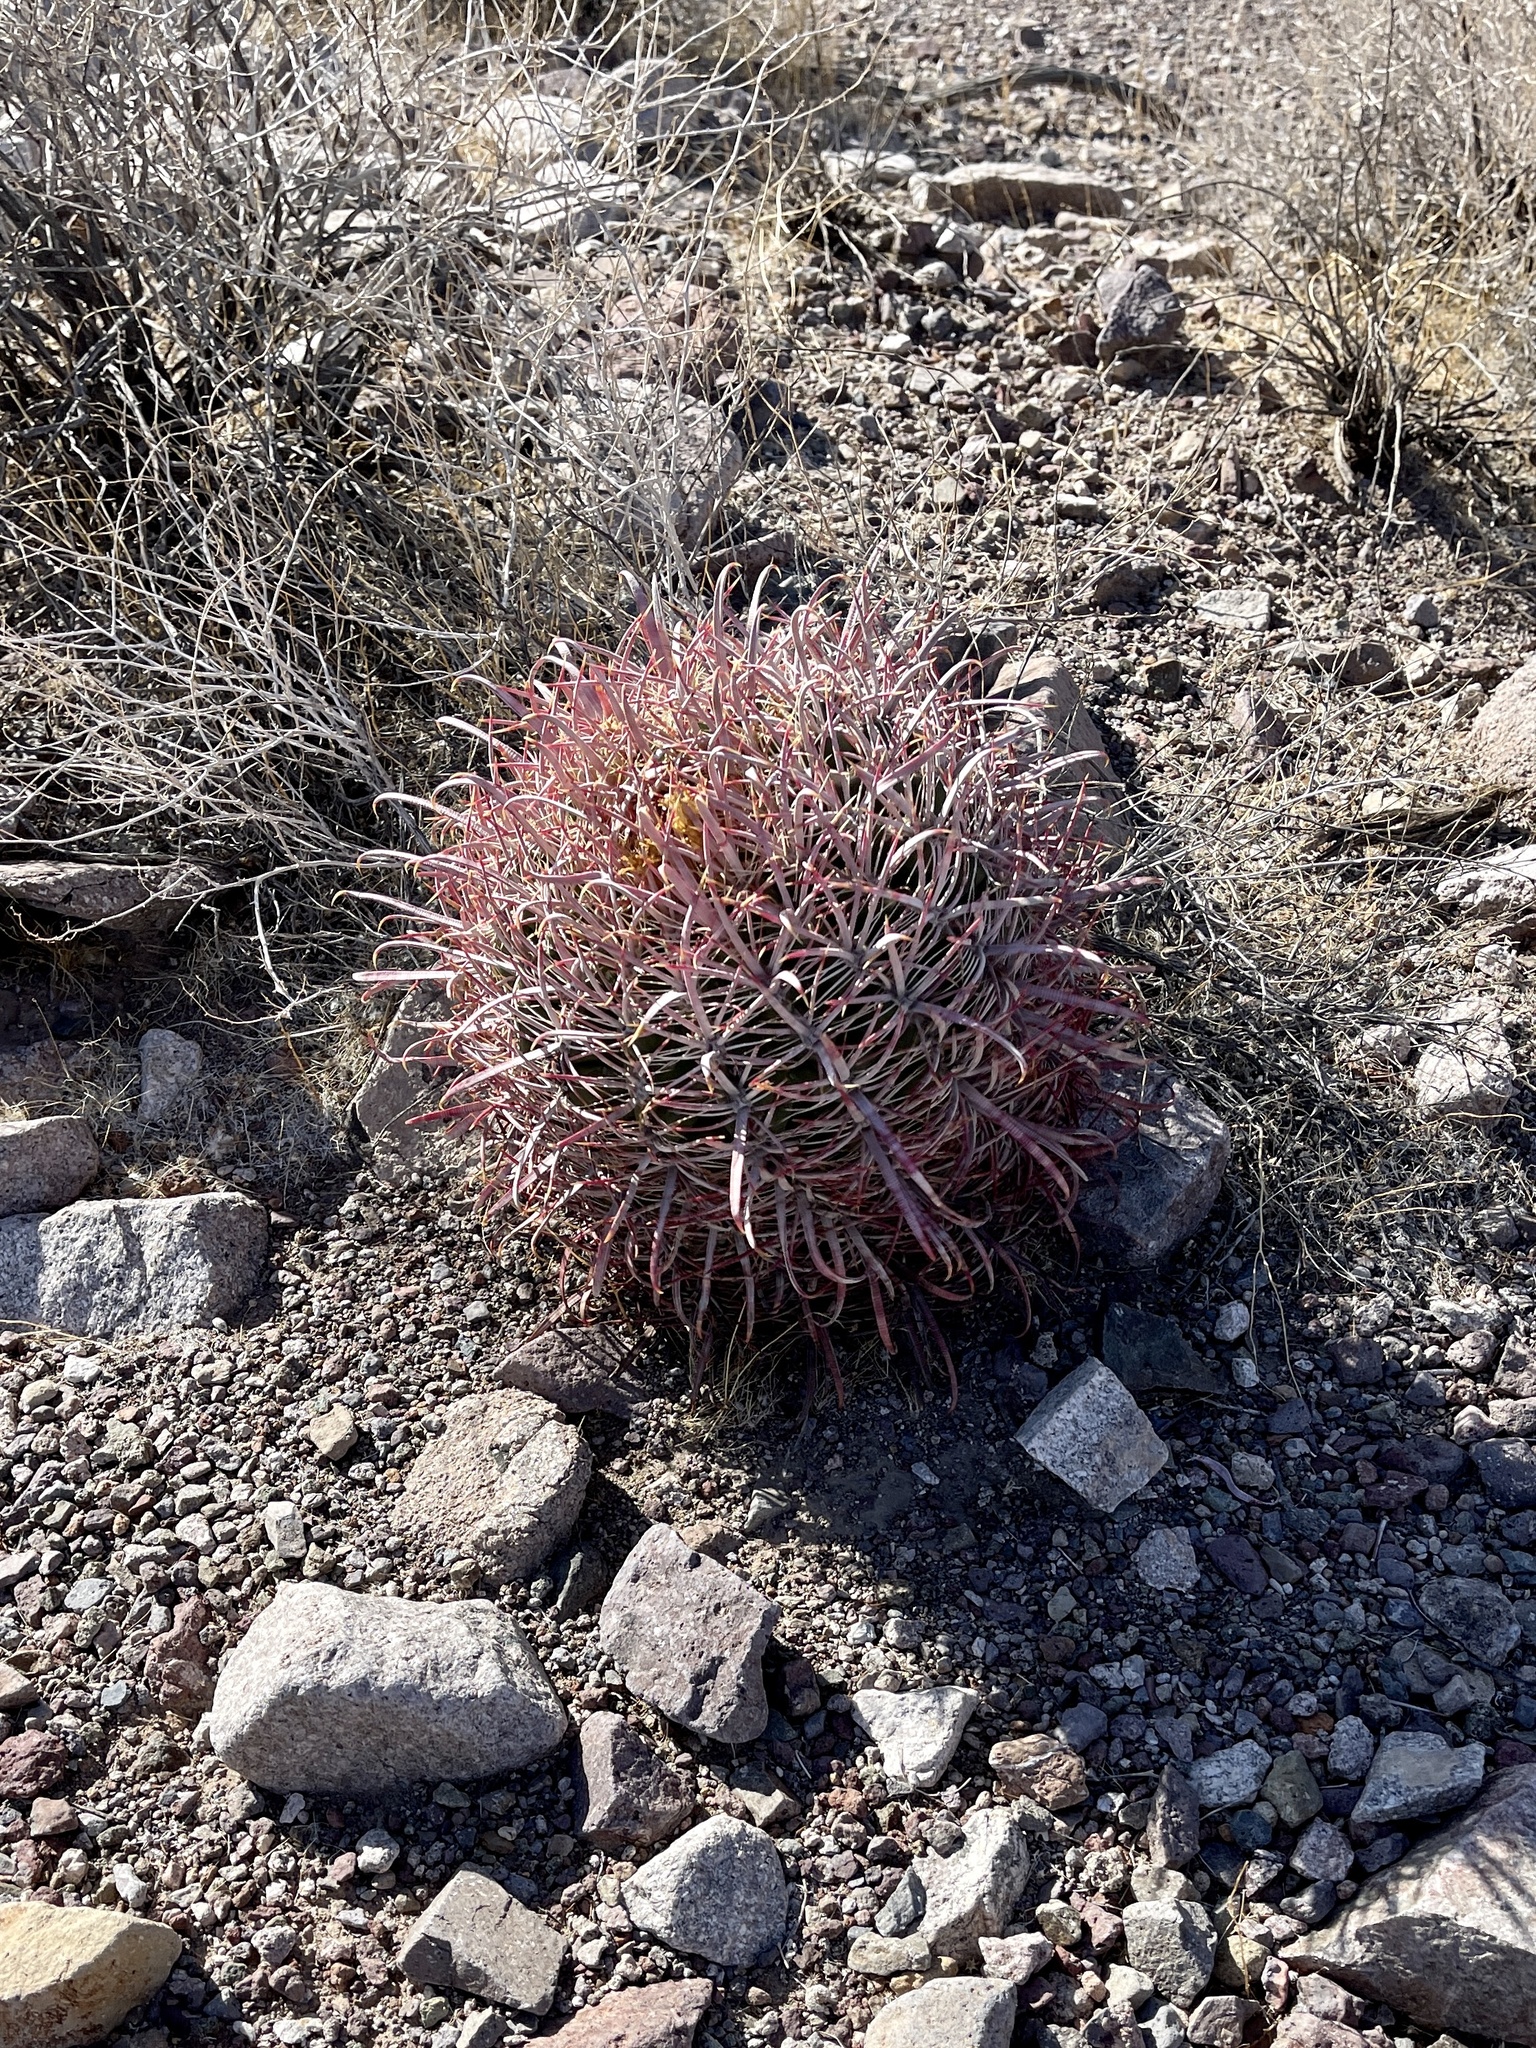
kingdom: Plantae
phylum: Tracheophyta
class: Magnoliopsida
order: Caryophyllales
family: Cactaceae
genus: Ferocactus
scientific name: Ferocactus cylindraceus
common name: California barrel cactus
